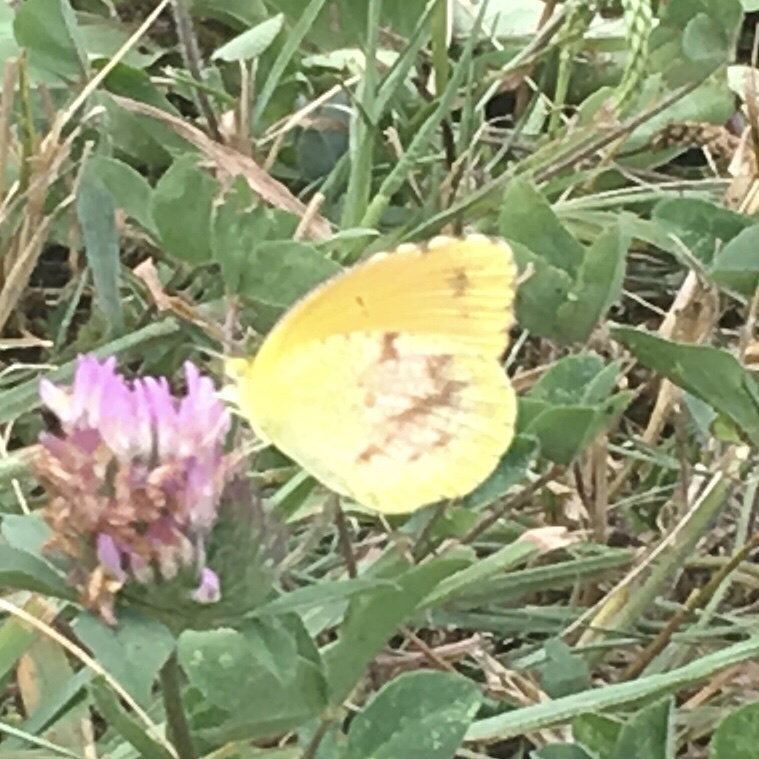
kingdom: Animalia
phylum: Arthropoda
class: Insecta
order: Lepidoptera
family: Pieridae
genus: Abaeis
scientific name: Abaeis nicippe
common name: Sleepy orange
